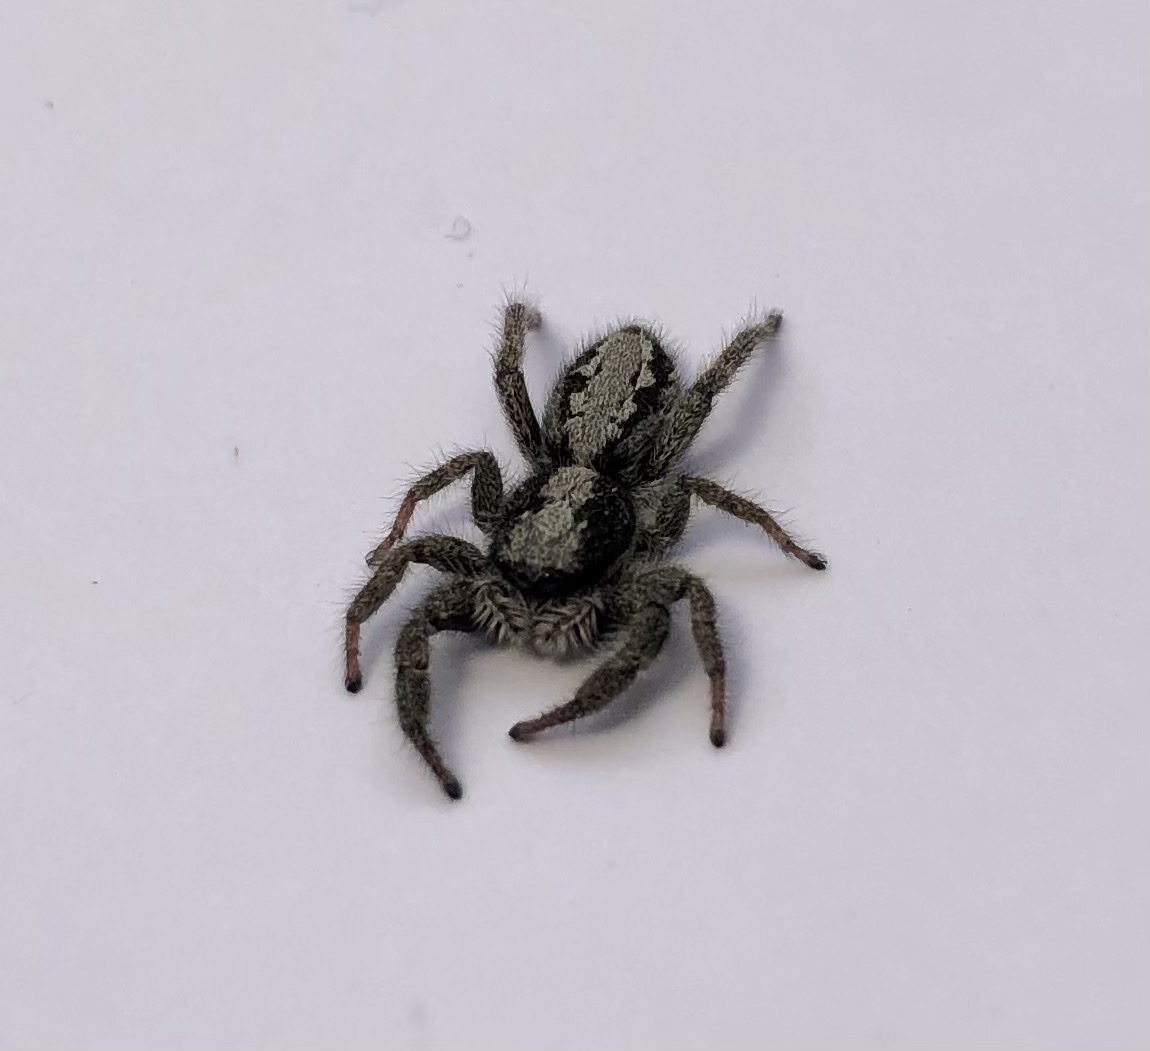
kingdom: Animalia
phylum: Arthropoda
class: Arachnida
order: Araneae
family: Salticidae
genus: Ocrisiona
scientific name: Ocrisiona leucocomis
